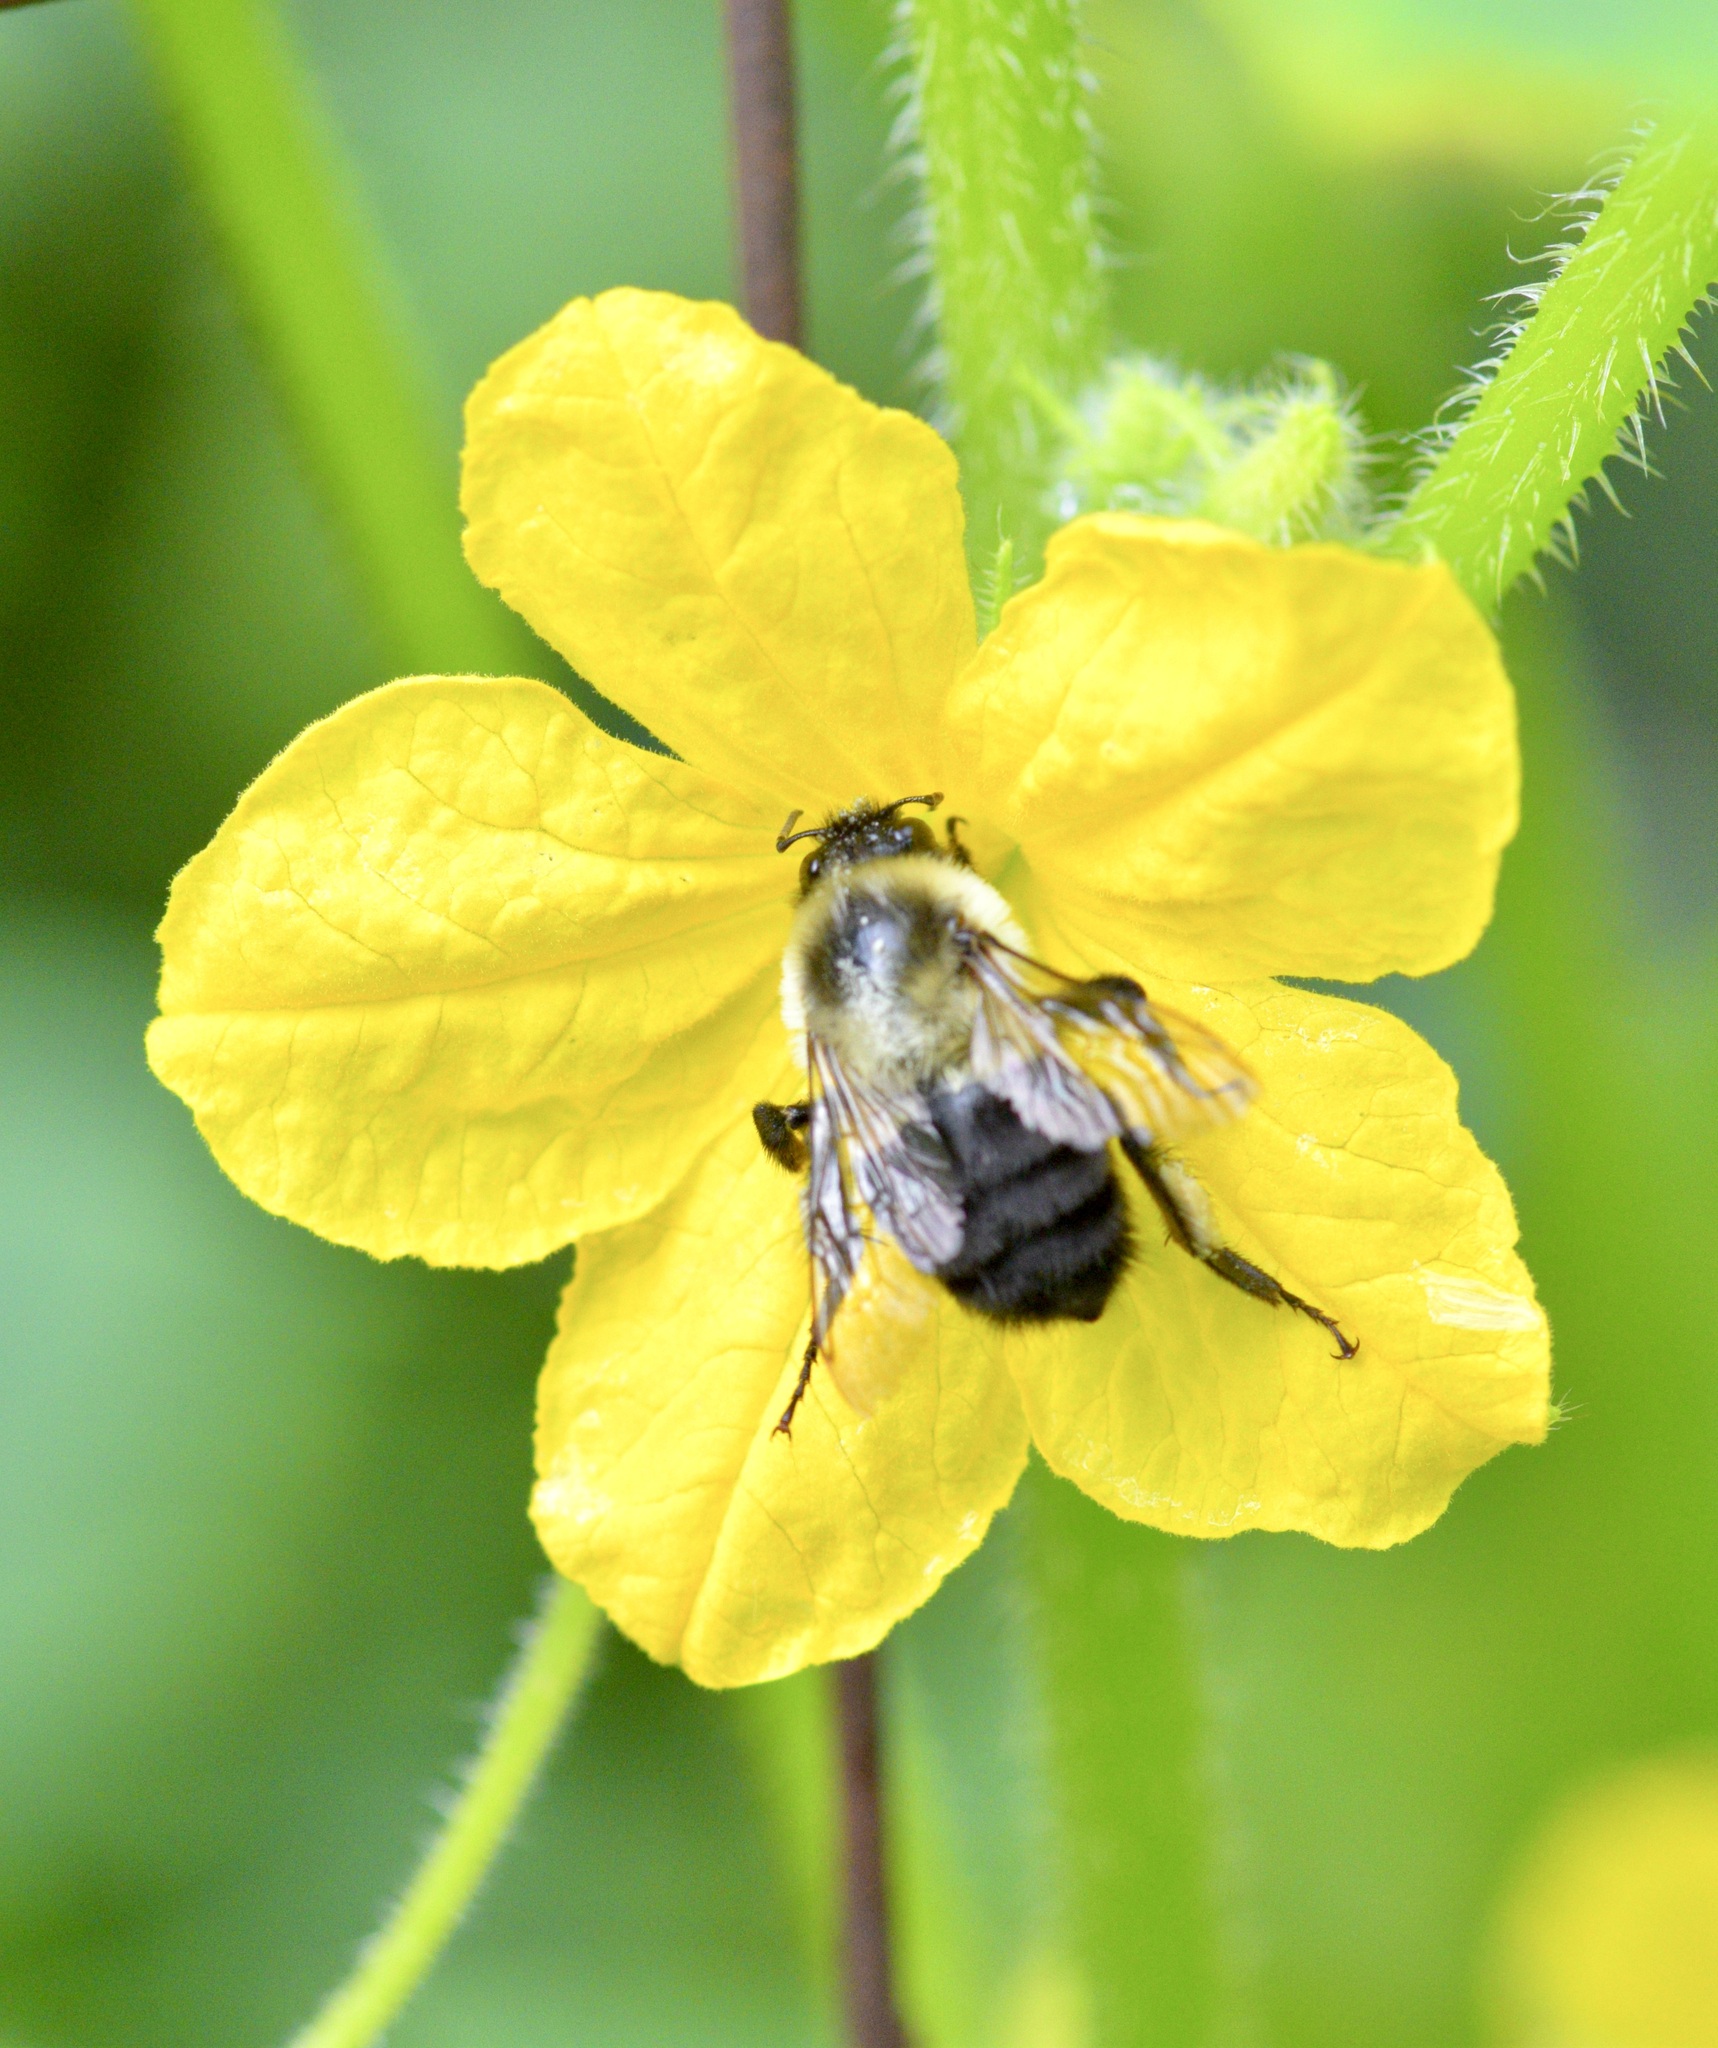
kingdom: Animalia
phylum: Arthropoda
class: Insecta
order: Hymenoptera
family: Apidae
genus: Bombus
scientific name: Bombus impatiens
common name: Common eastern bumble bee
